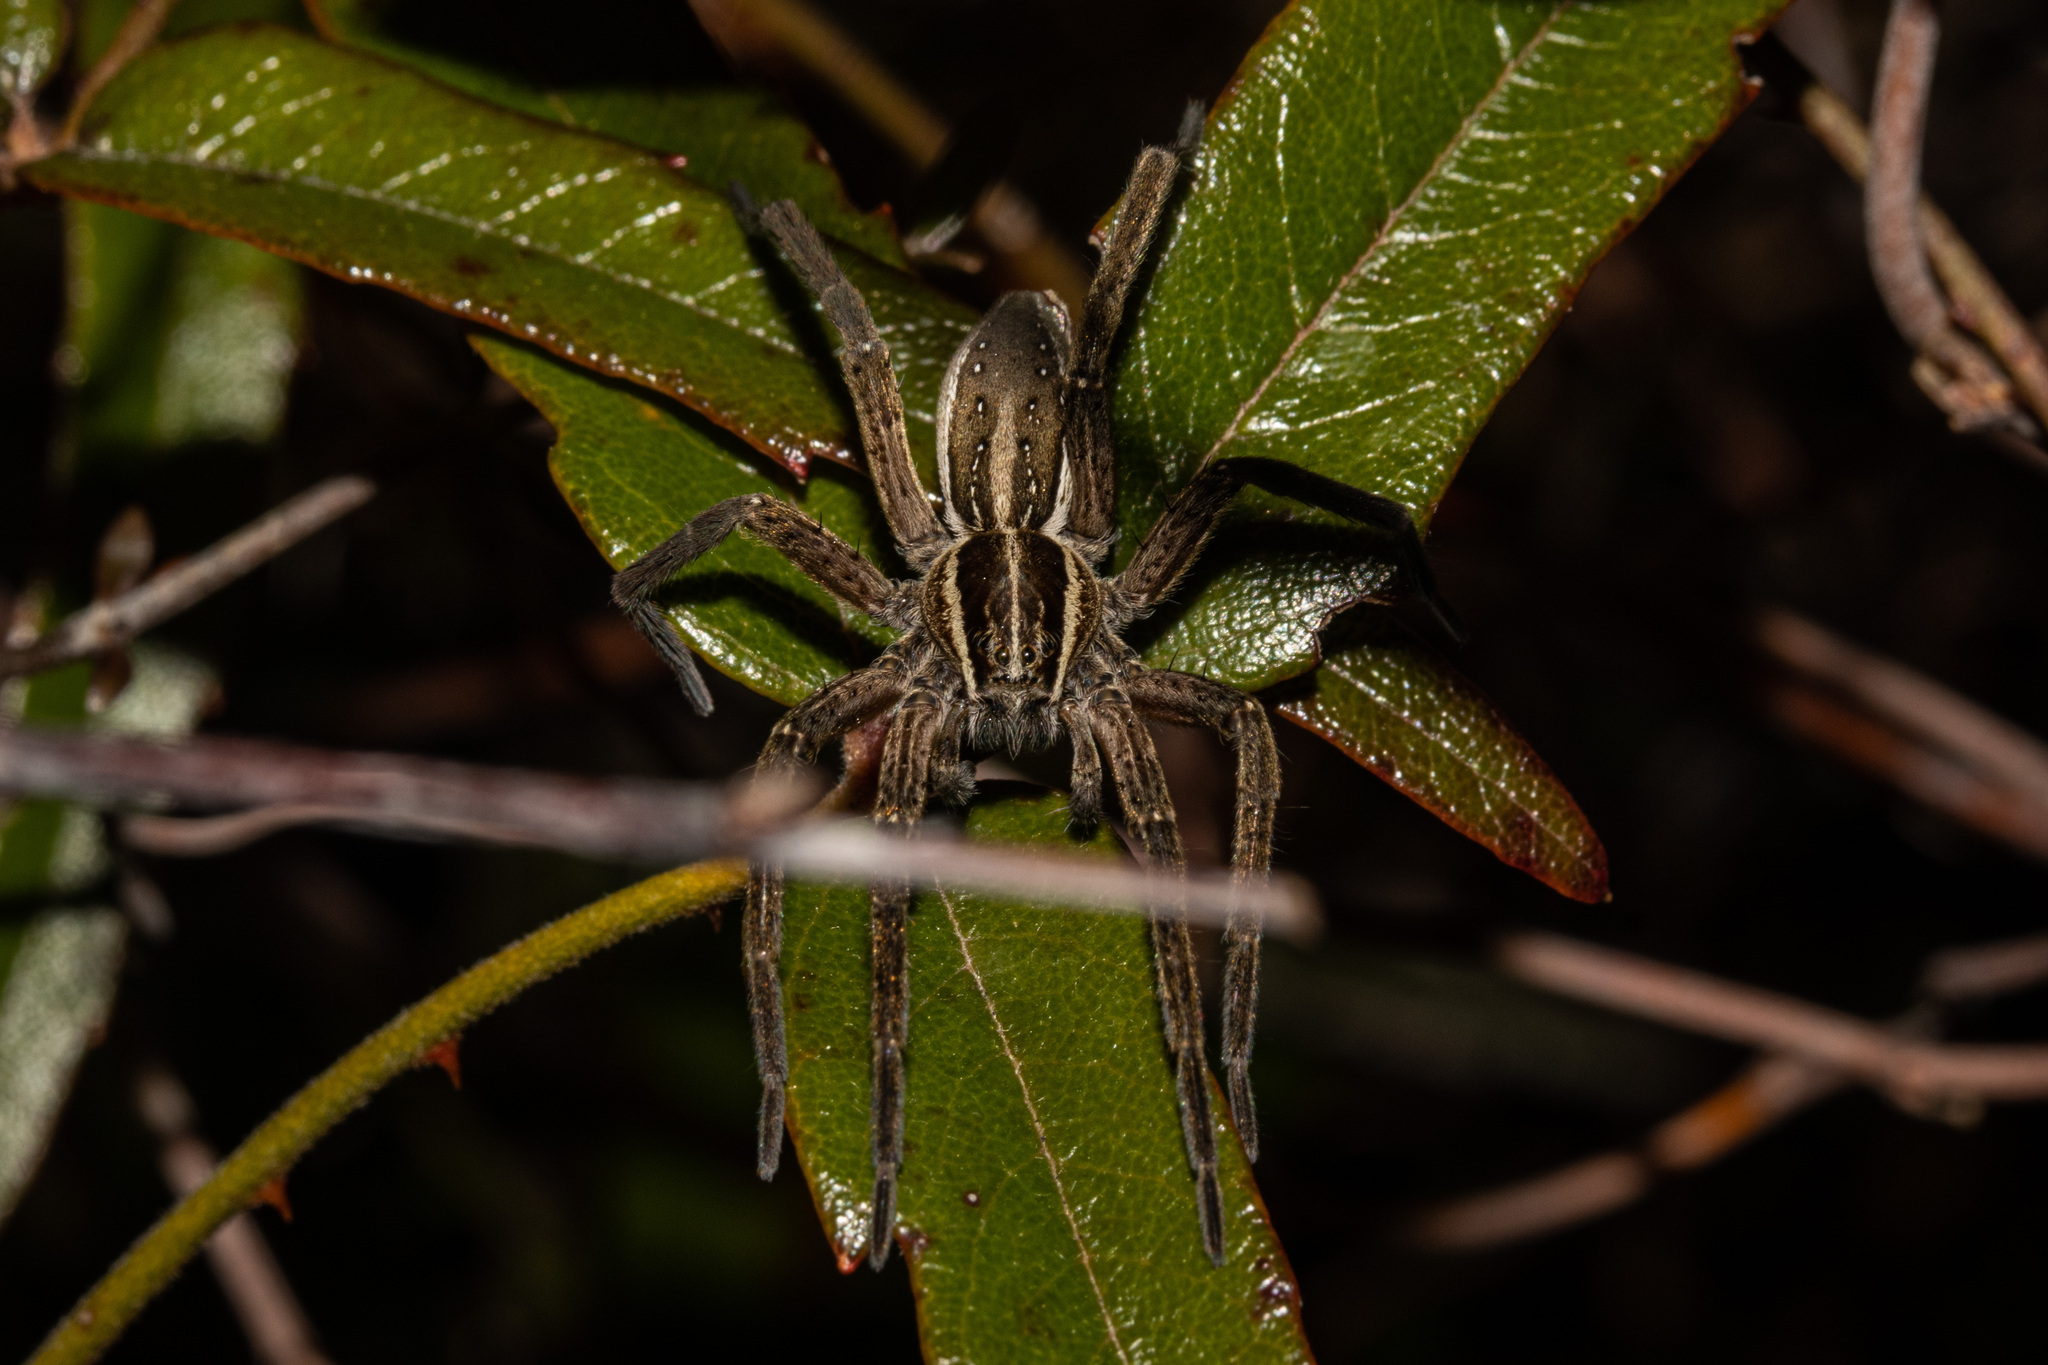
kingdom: Animalia
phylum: Arthropoda
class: Arachnida
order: Araneae
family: Pisauridae
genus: Dolomedes
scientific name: Dolomedes minor
